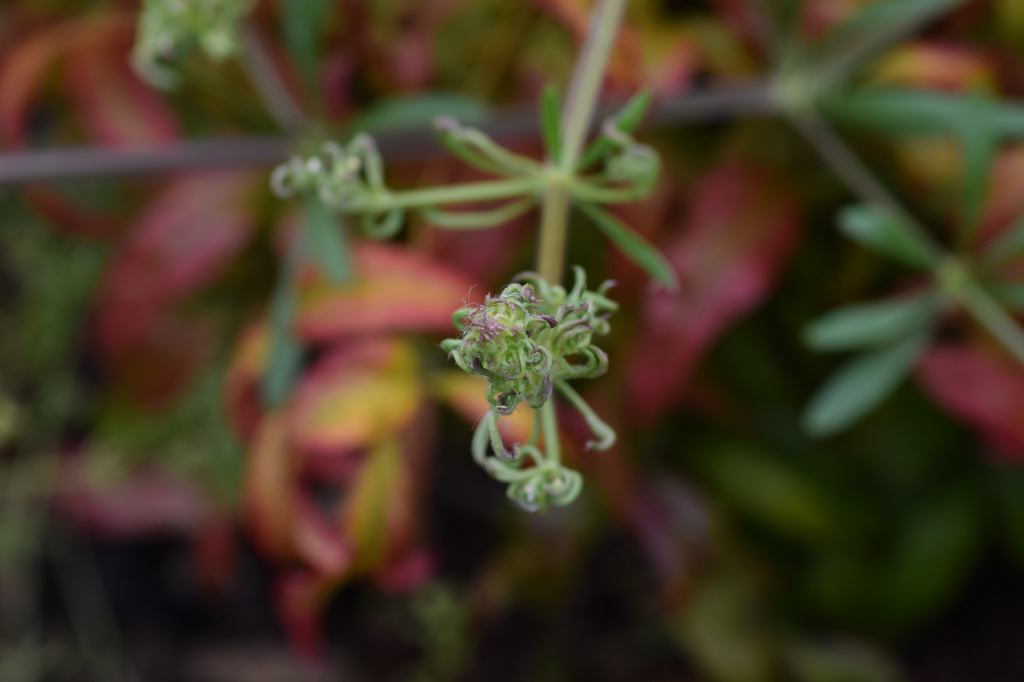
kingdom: Animalia
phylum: Arthropoda
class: Arachnida
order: Trombidiformes
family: Eriophyidae
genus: Cecidophyes
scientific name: Cecidophyes rouhollahi
